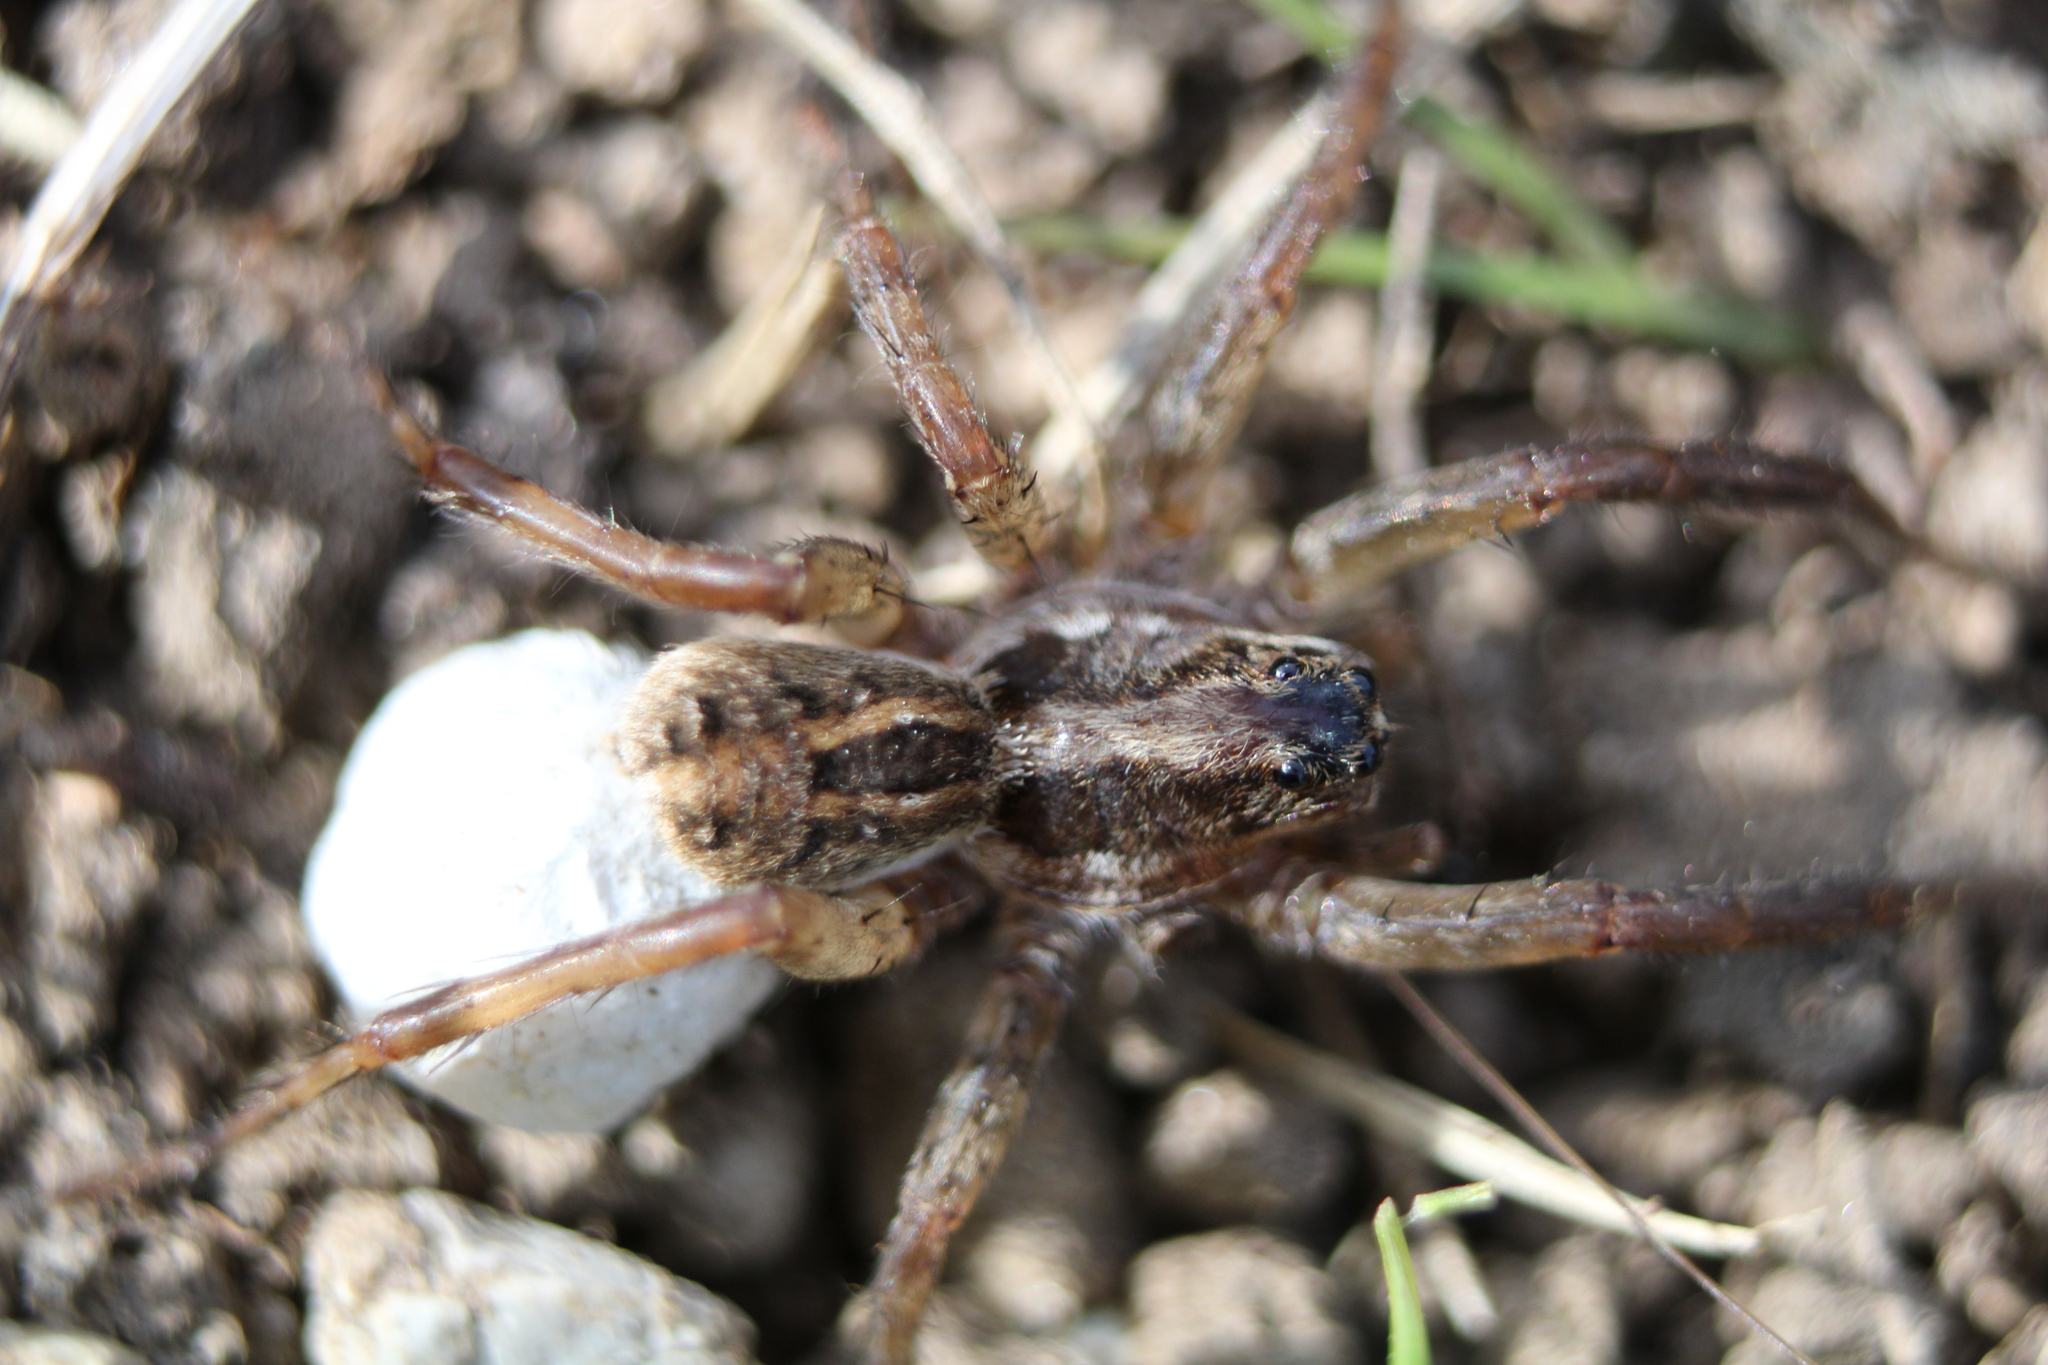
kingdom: Animalia
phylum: Arthropoda
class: Arachnida
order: Araneae
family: Lycosidae
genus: Schizocosa
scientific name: Schizocosa avida
